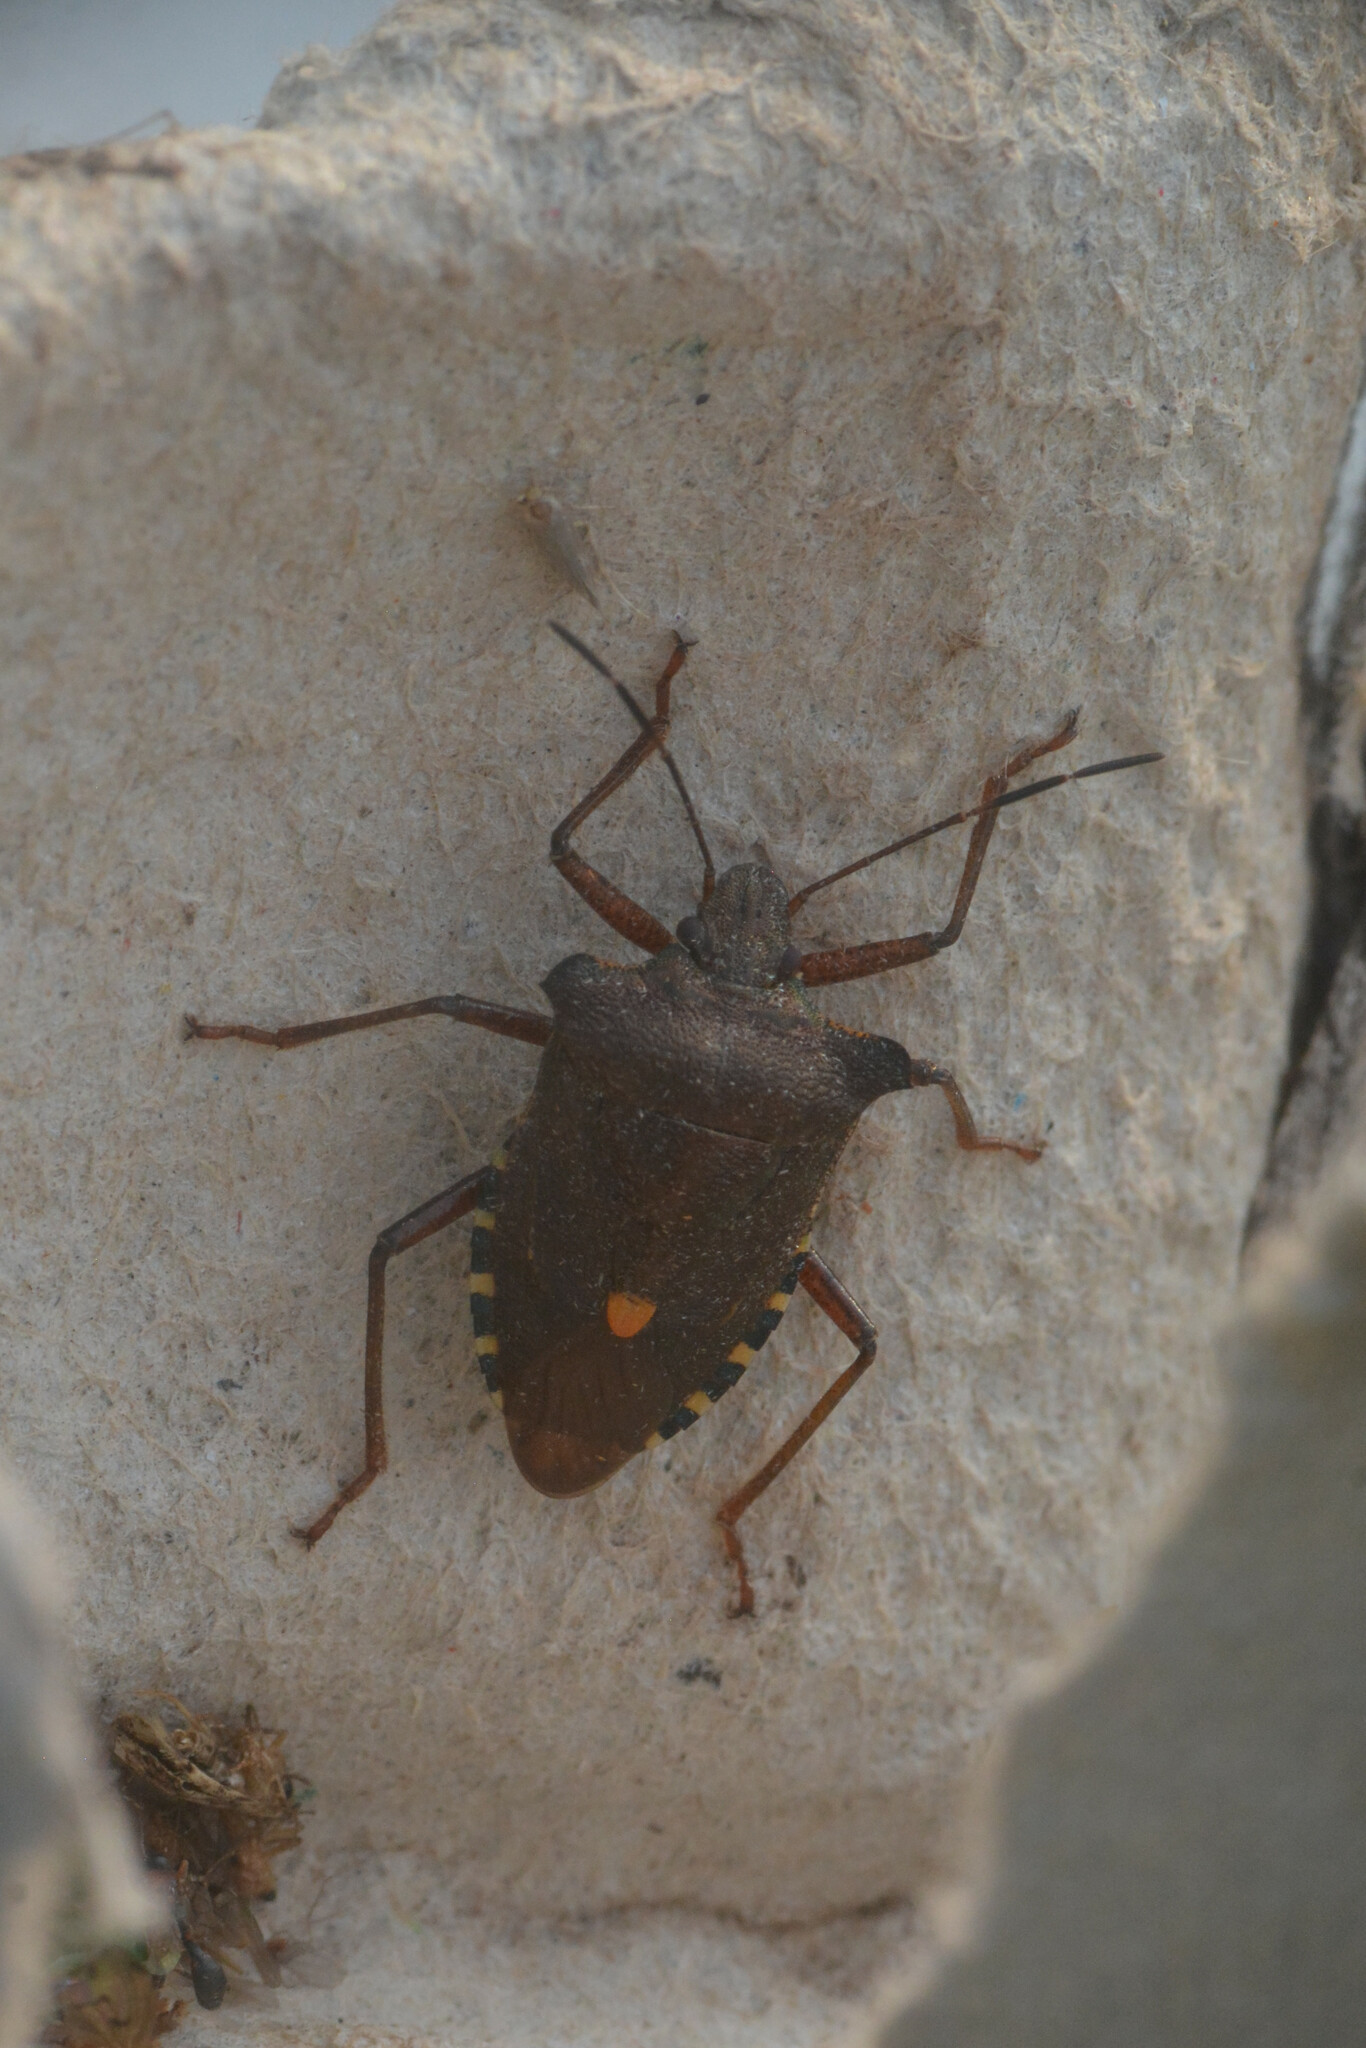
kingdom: Animalia
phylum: Arthropoda
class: Insecta
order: Hemiptera
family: Pentatomidae
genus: Pentatoma
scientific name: Pentatoma rufipes
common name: Forest bug
